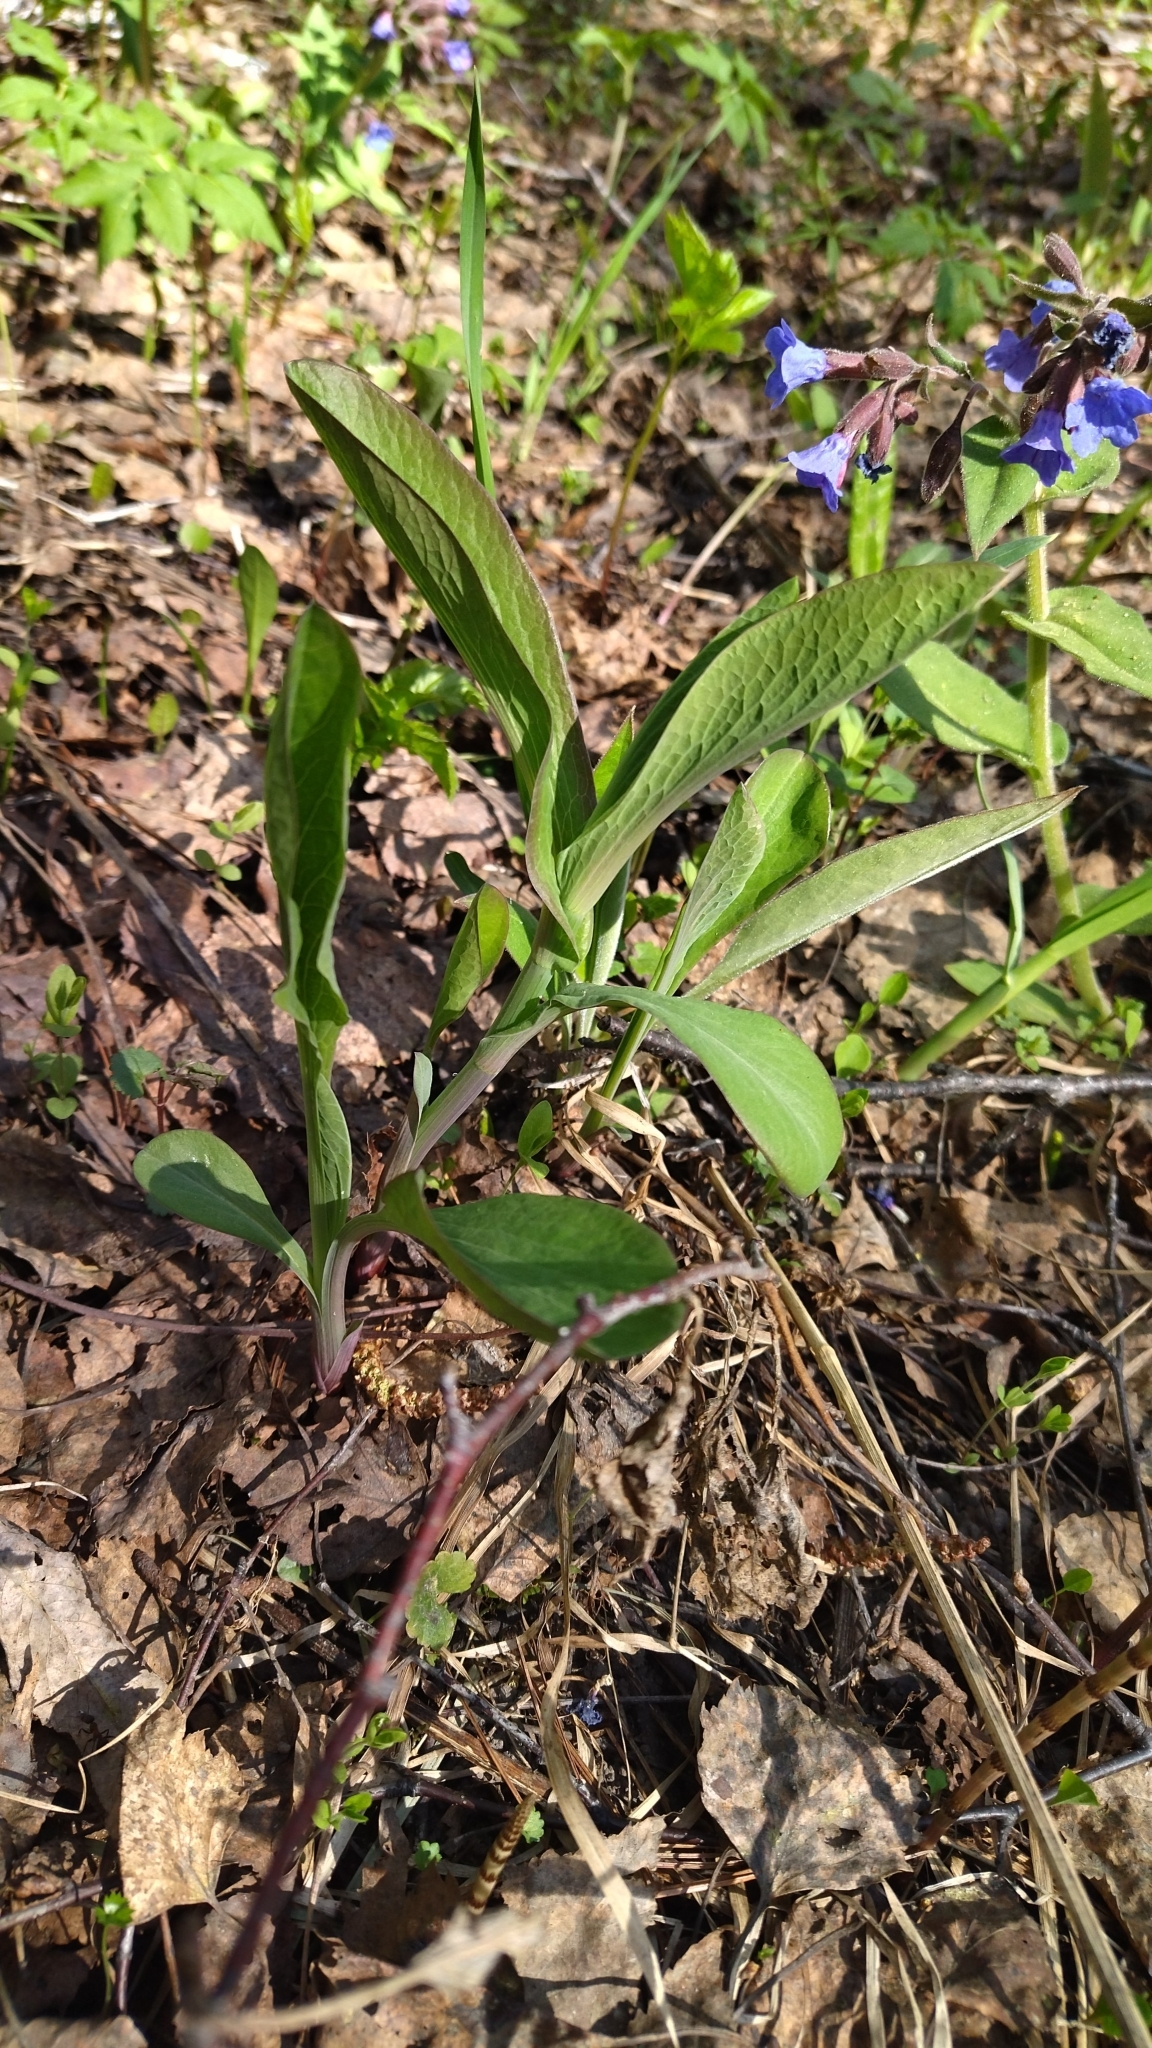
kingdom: Plantae
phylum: Tracheophyta
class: Magnoliopsida
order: Apiales
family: Apiaceae
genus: Bupleurum
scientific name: Bupleurum aureum
